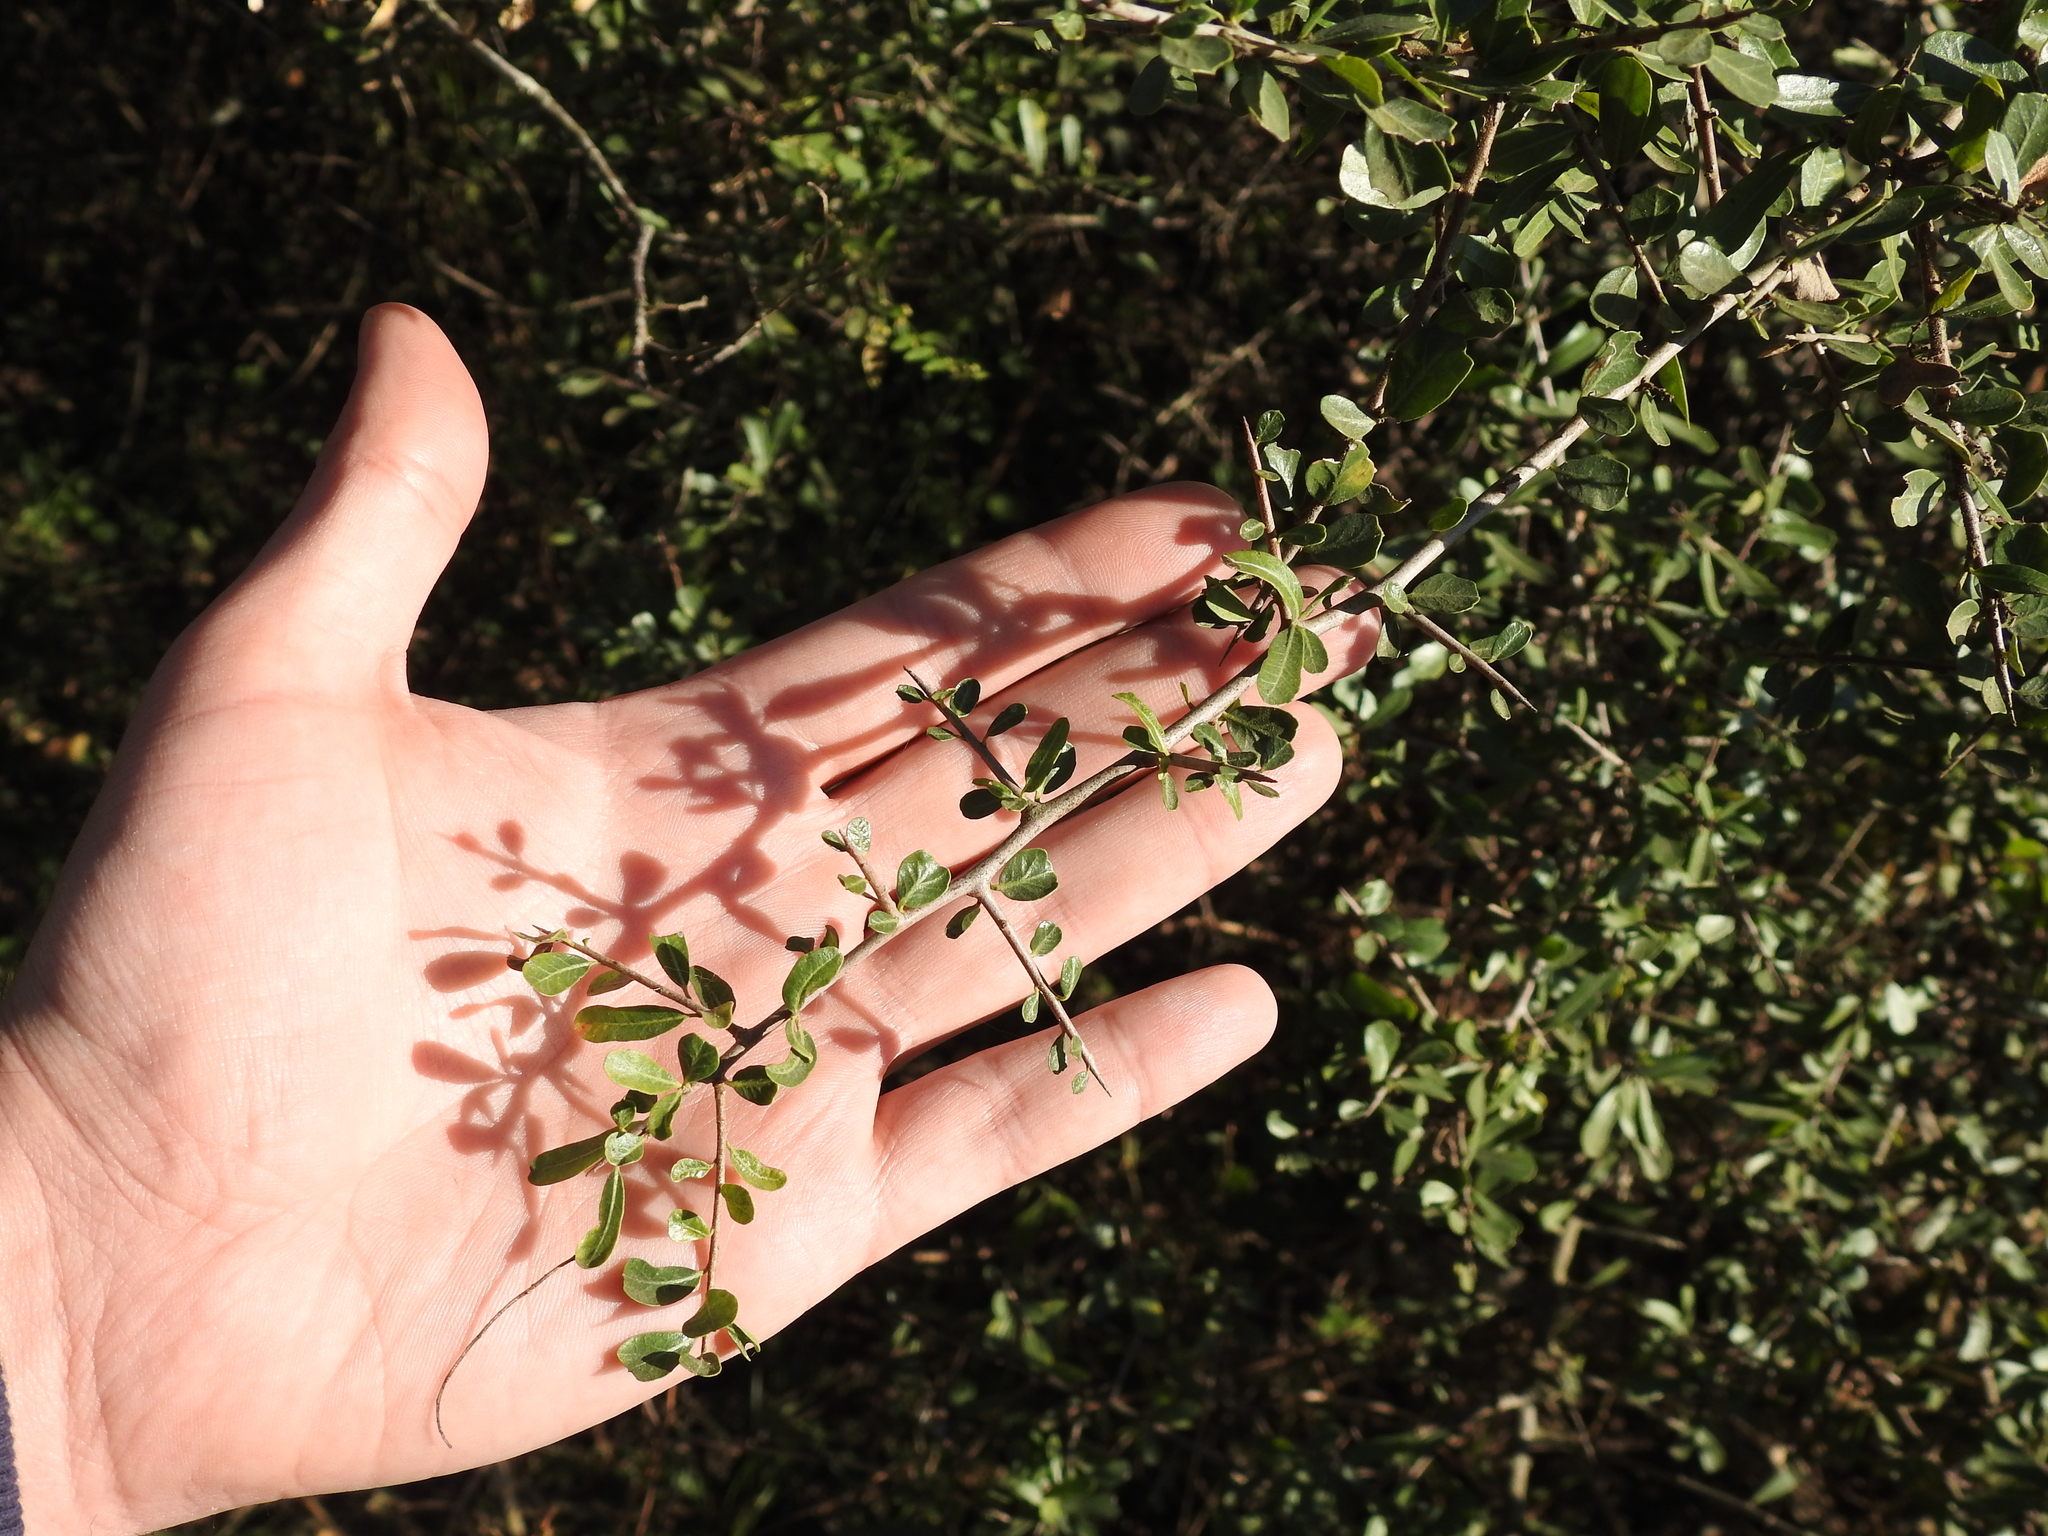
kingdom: Plantae
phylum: Tracheophyta
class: Magnoliopsida
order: Sapindales
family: Anacardiaceae
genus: Schinus
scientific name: Schinus fasciculata
